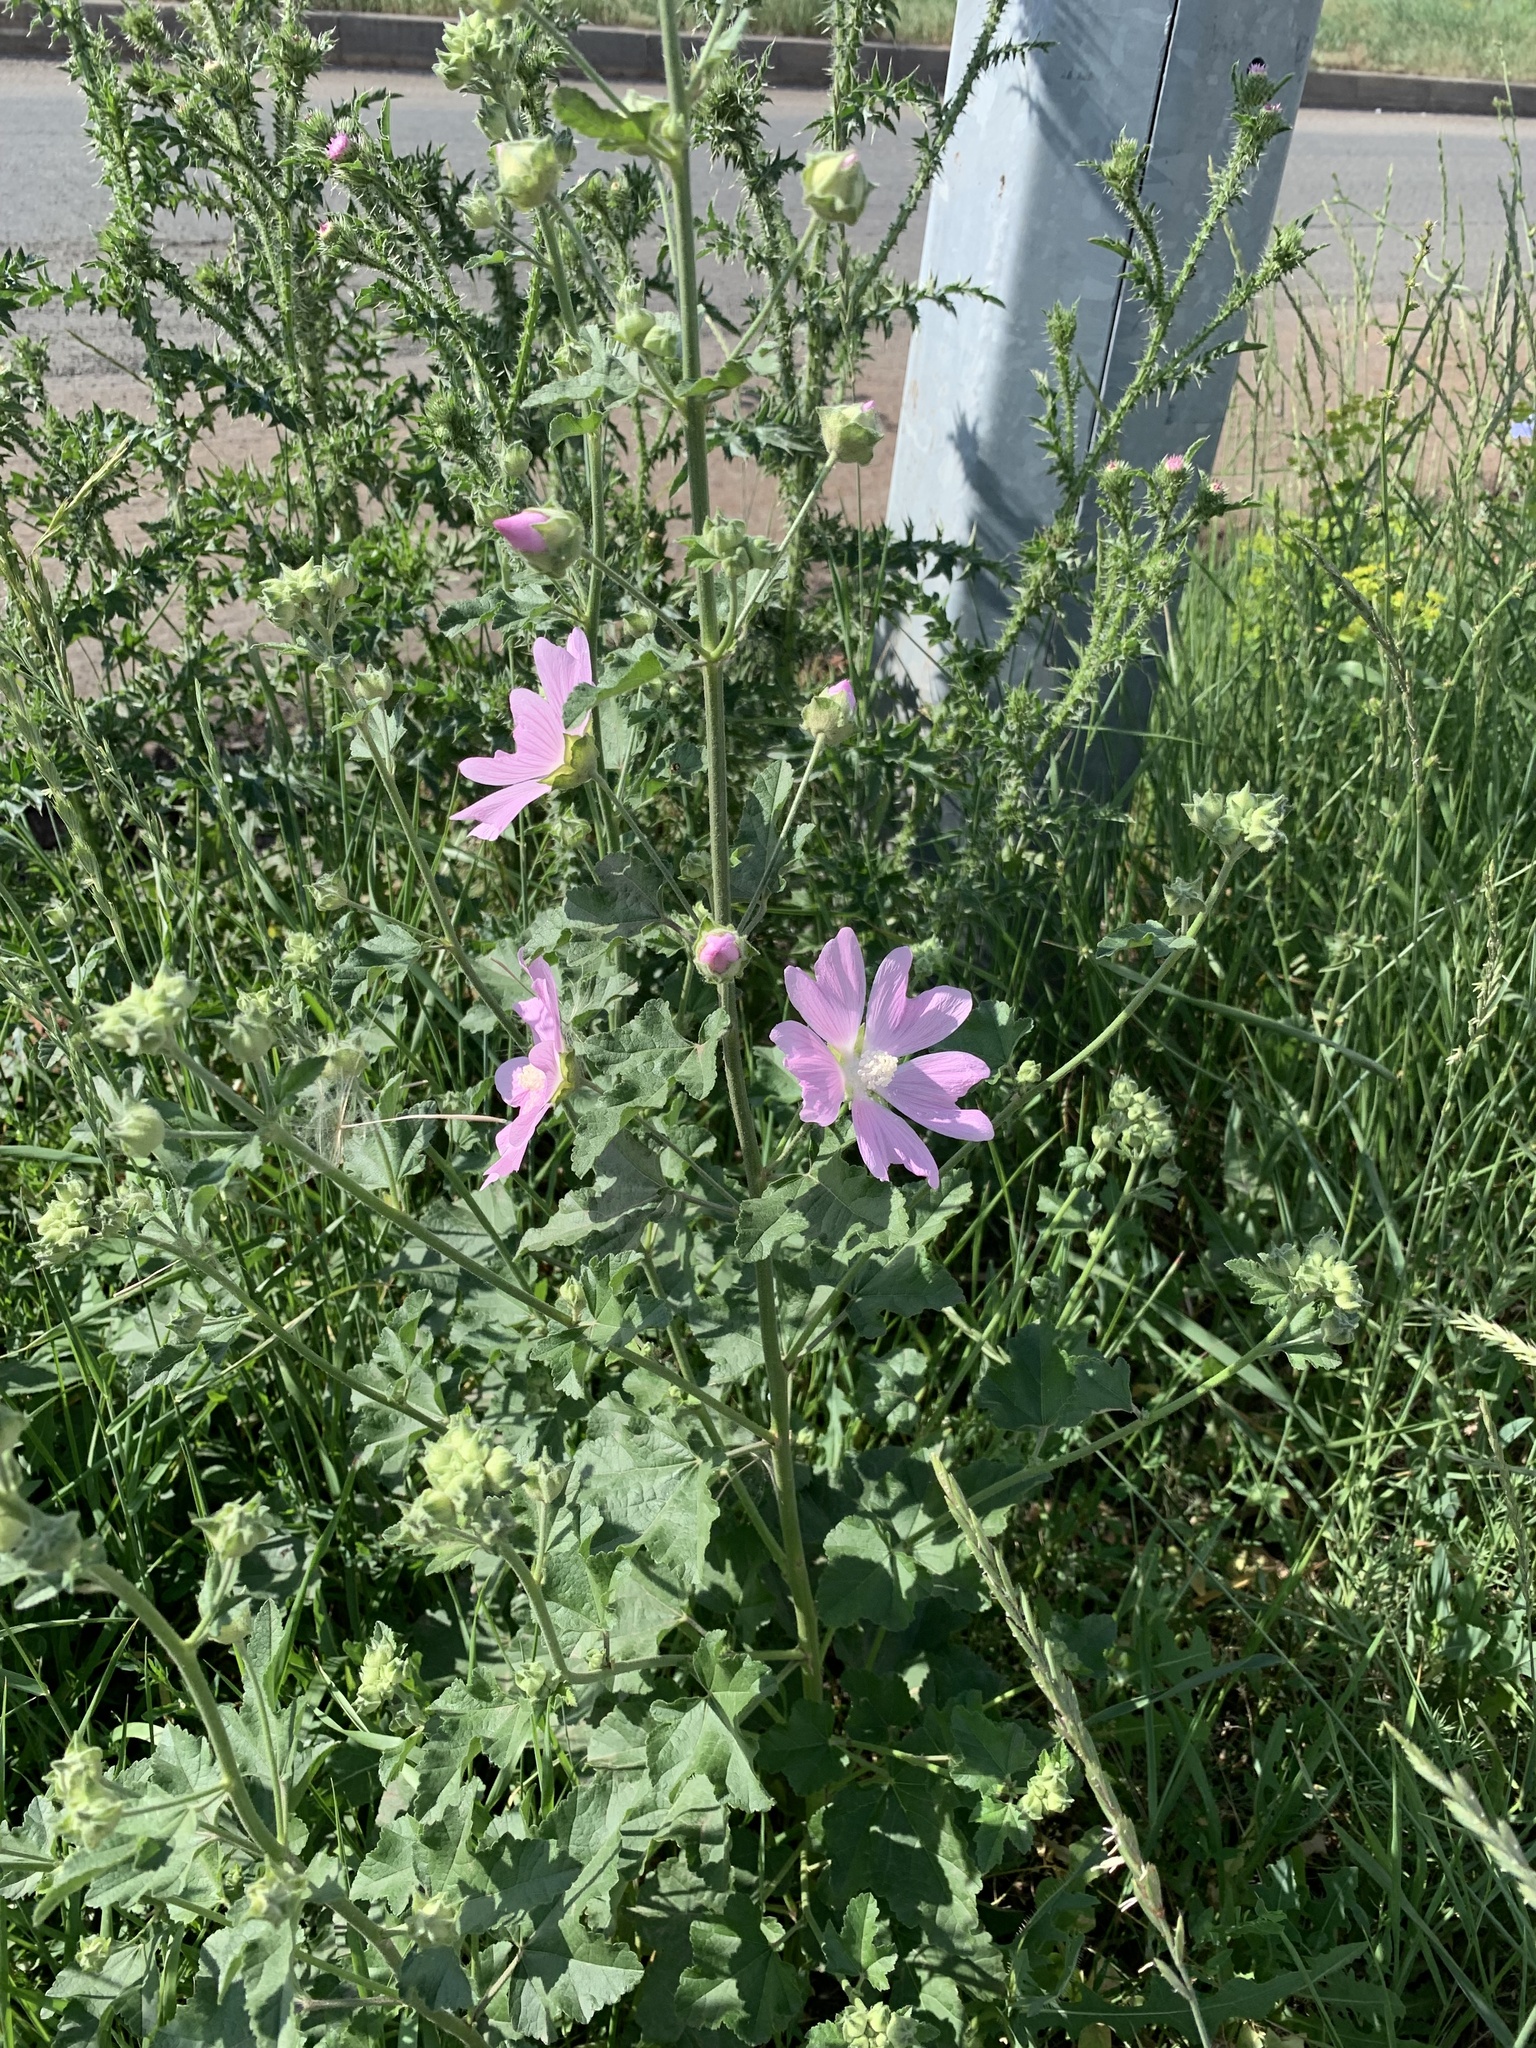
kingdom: Plantae
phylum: Tracheophyta
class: Magnoliopsida
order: Malvales
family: Malvaceae
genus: Malva
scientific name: Malva thuringiaca
